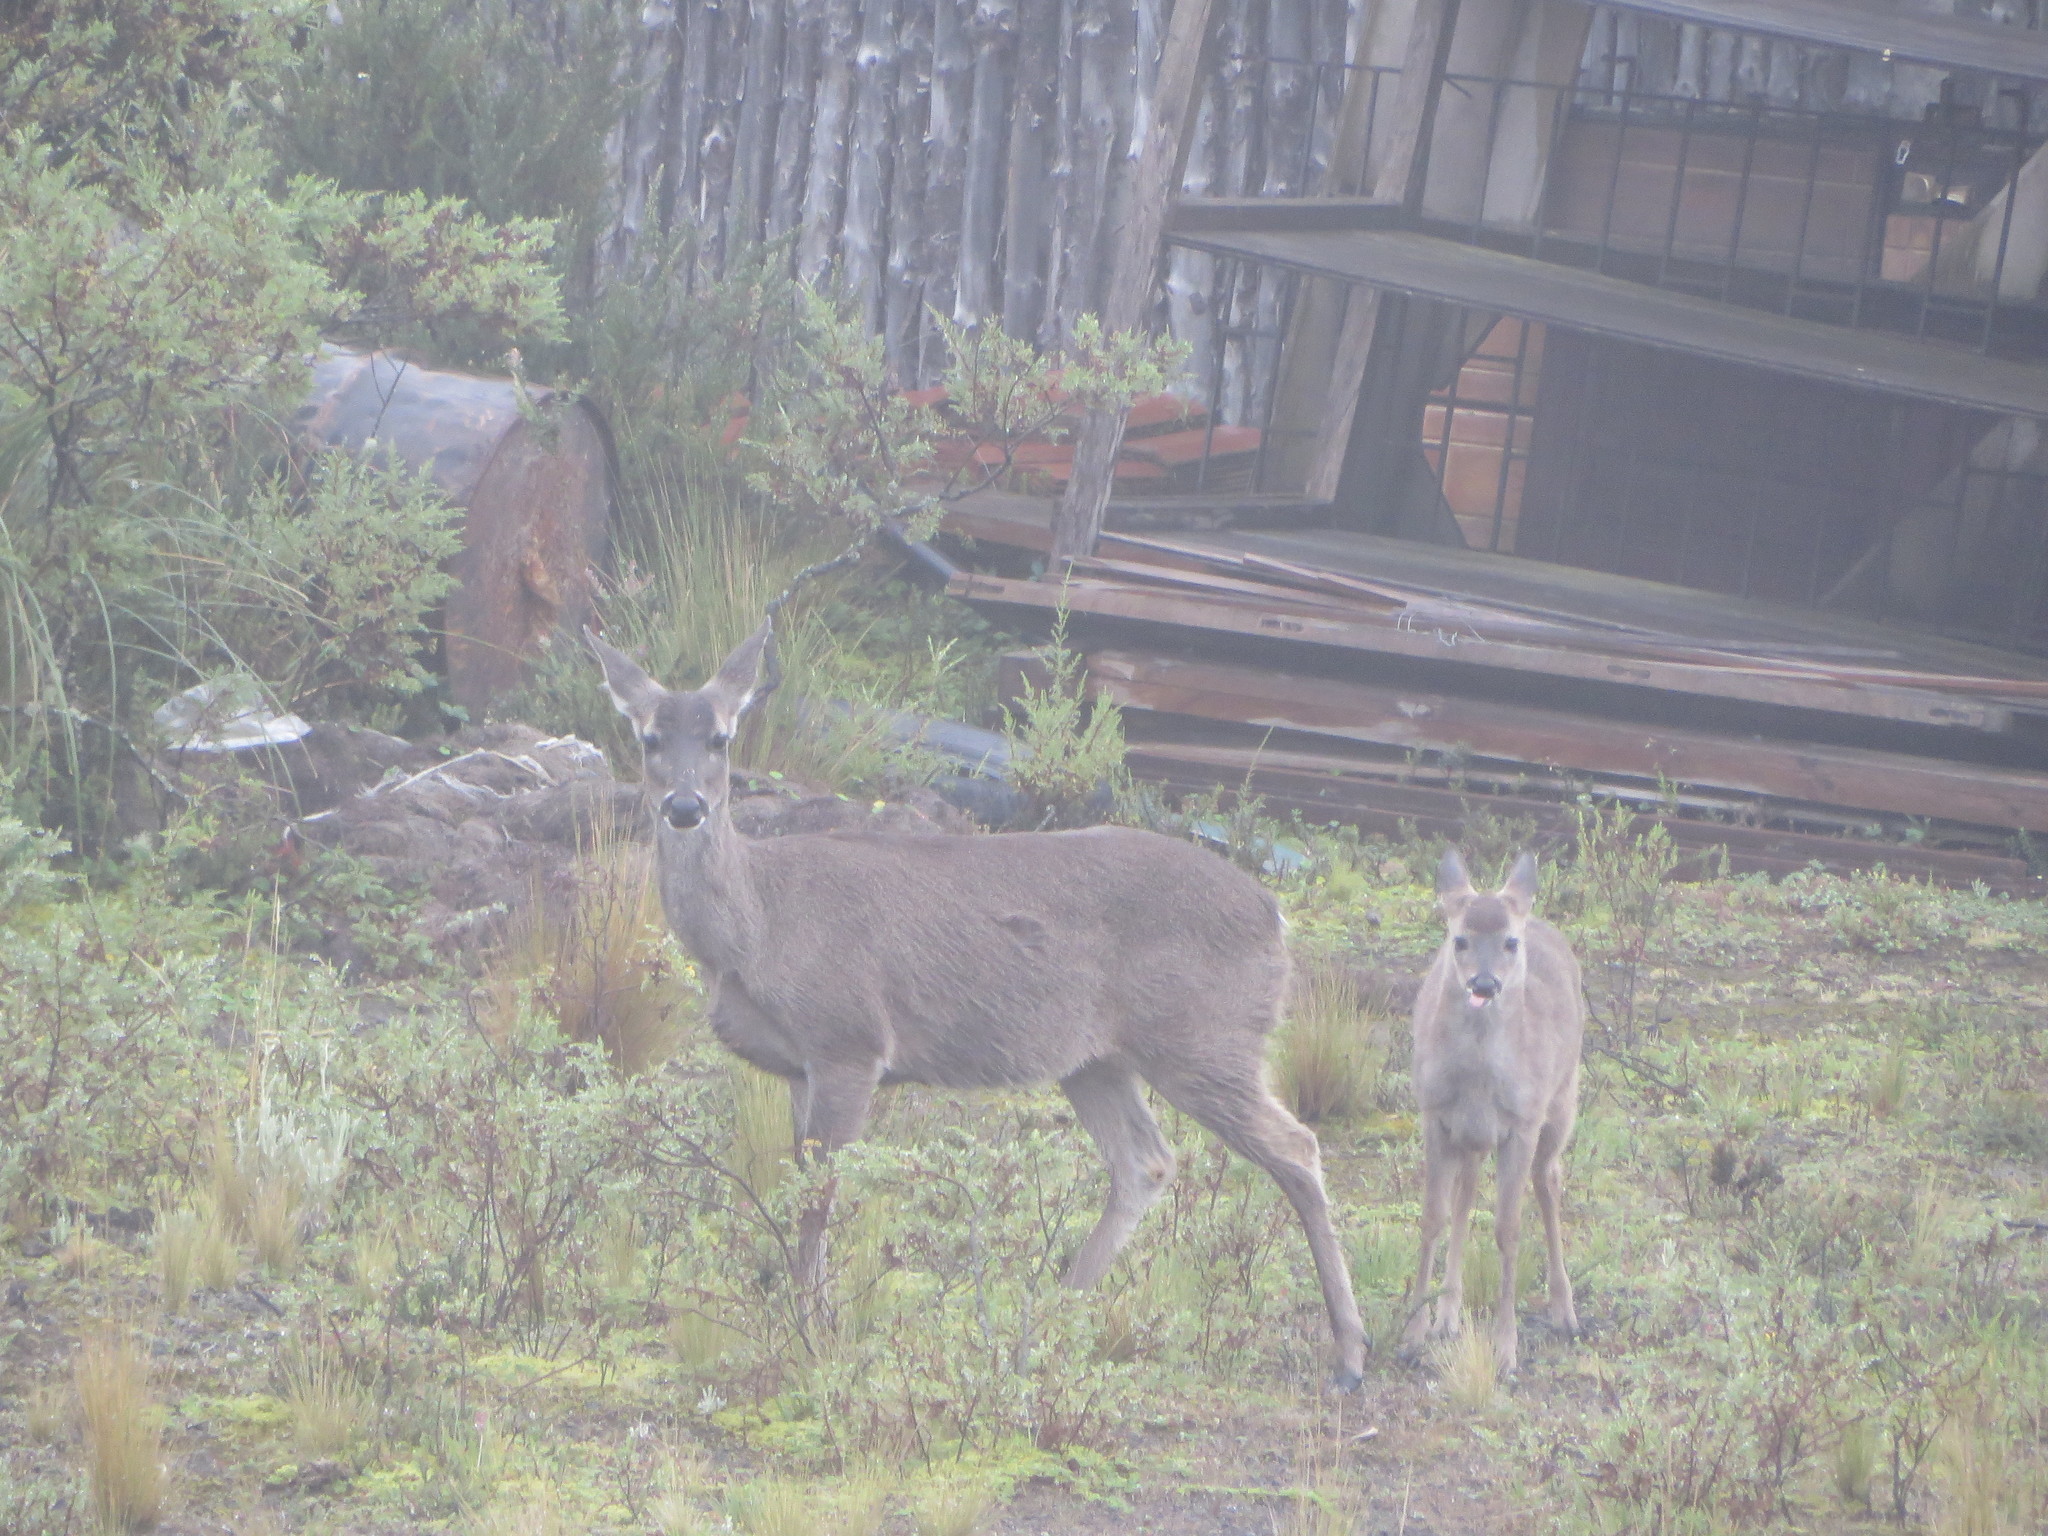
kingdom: Animalia
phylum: Chordata
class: Mammalia
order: Artiodactyla
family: Cervidae
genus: Odocoileus
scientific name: Odocoileus virginianus
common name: White-tailed deer
